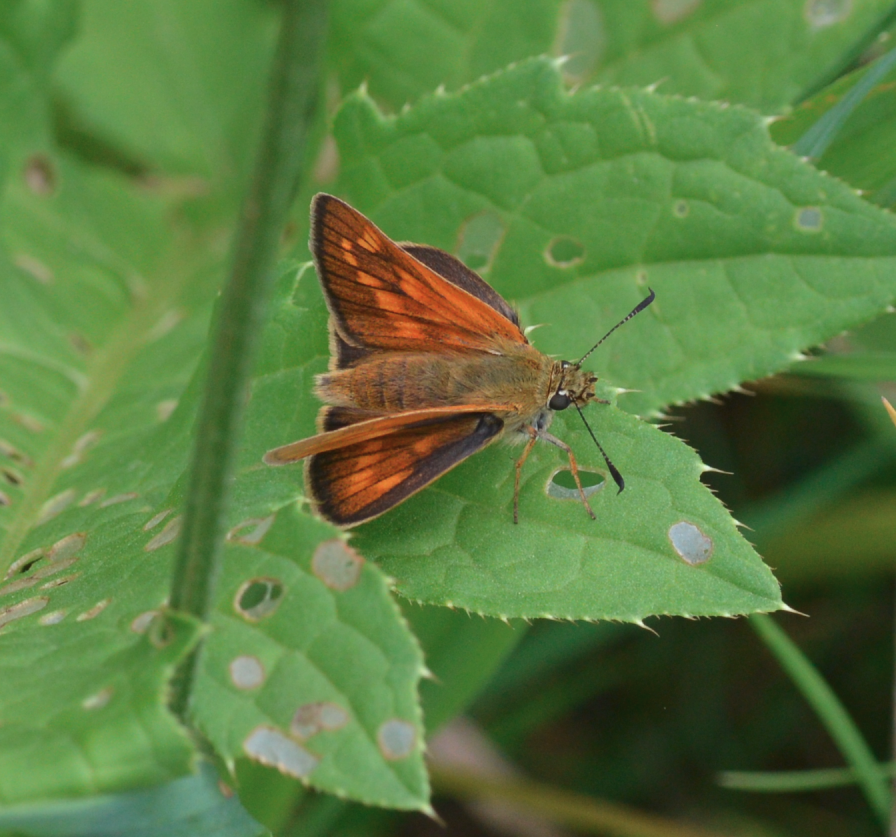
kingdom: Animalia
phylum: Arthropoda
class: Insecta
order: Lepidoptera
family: Hesperiidae
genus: Ochlodes
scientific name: Ochlodes venata
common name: Large skipper
